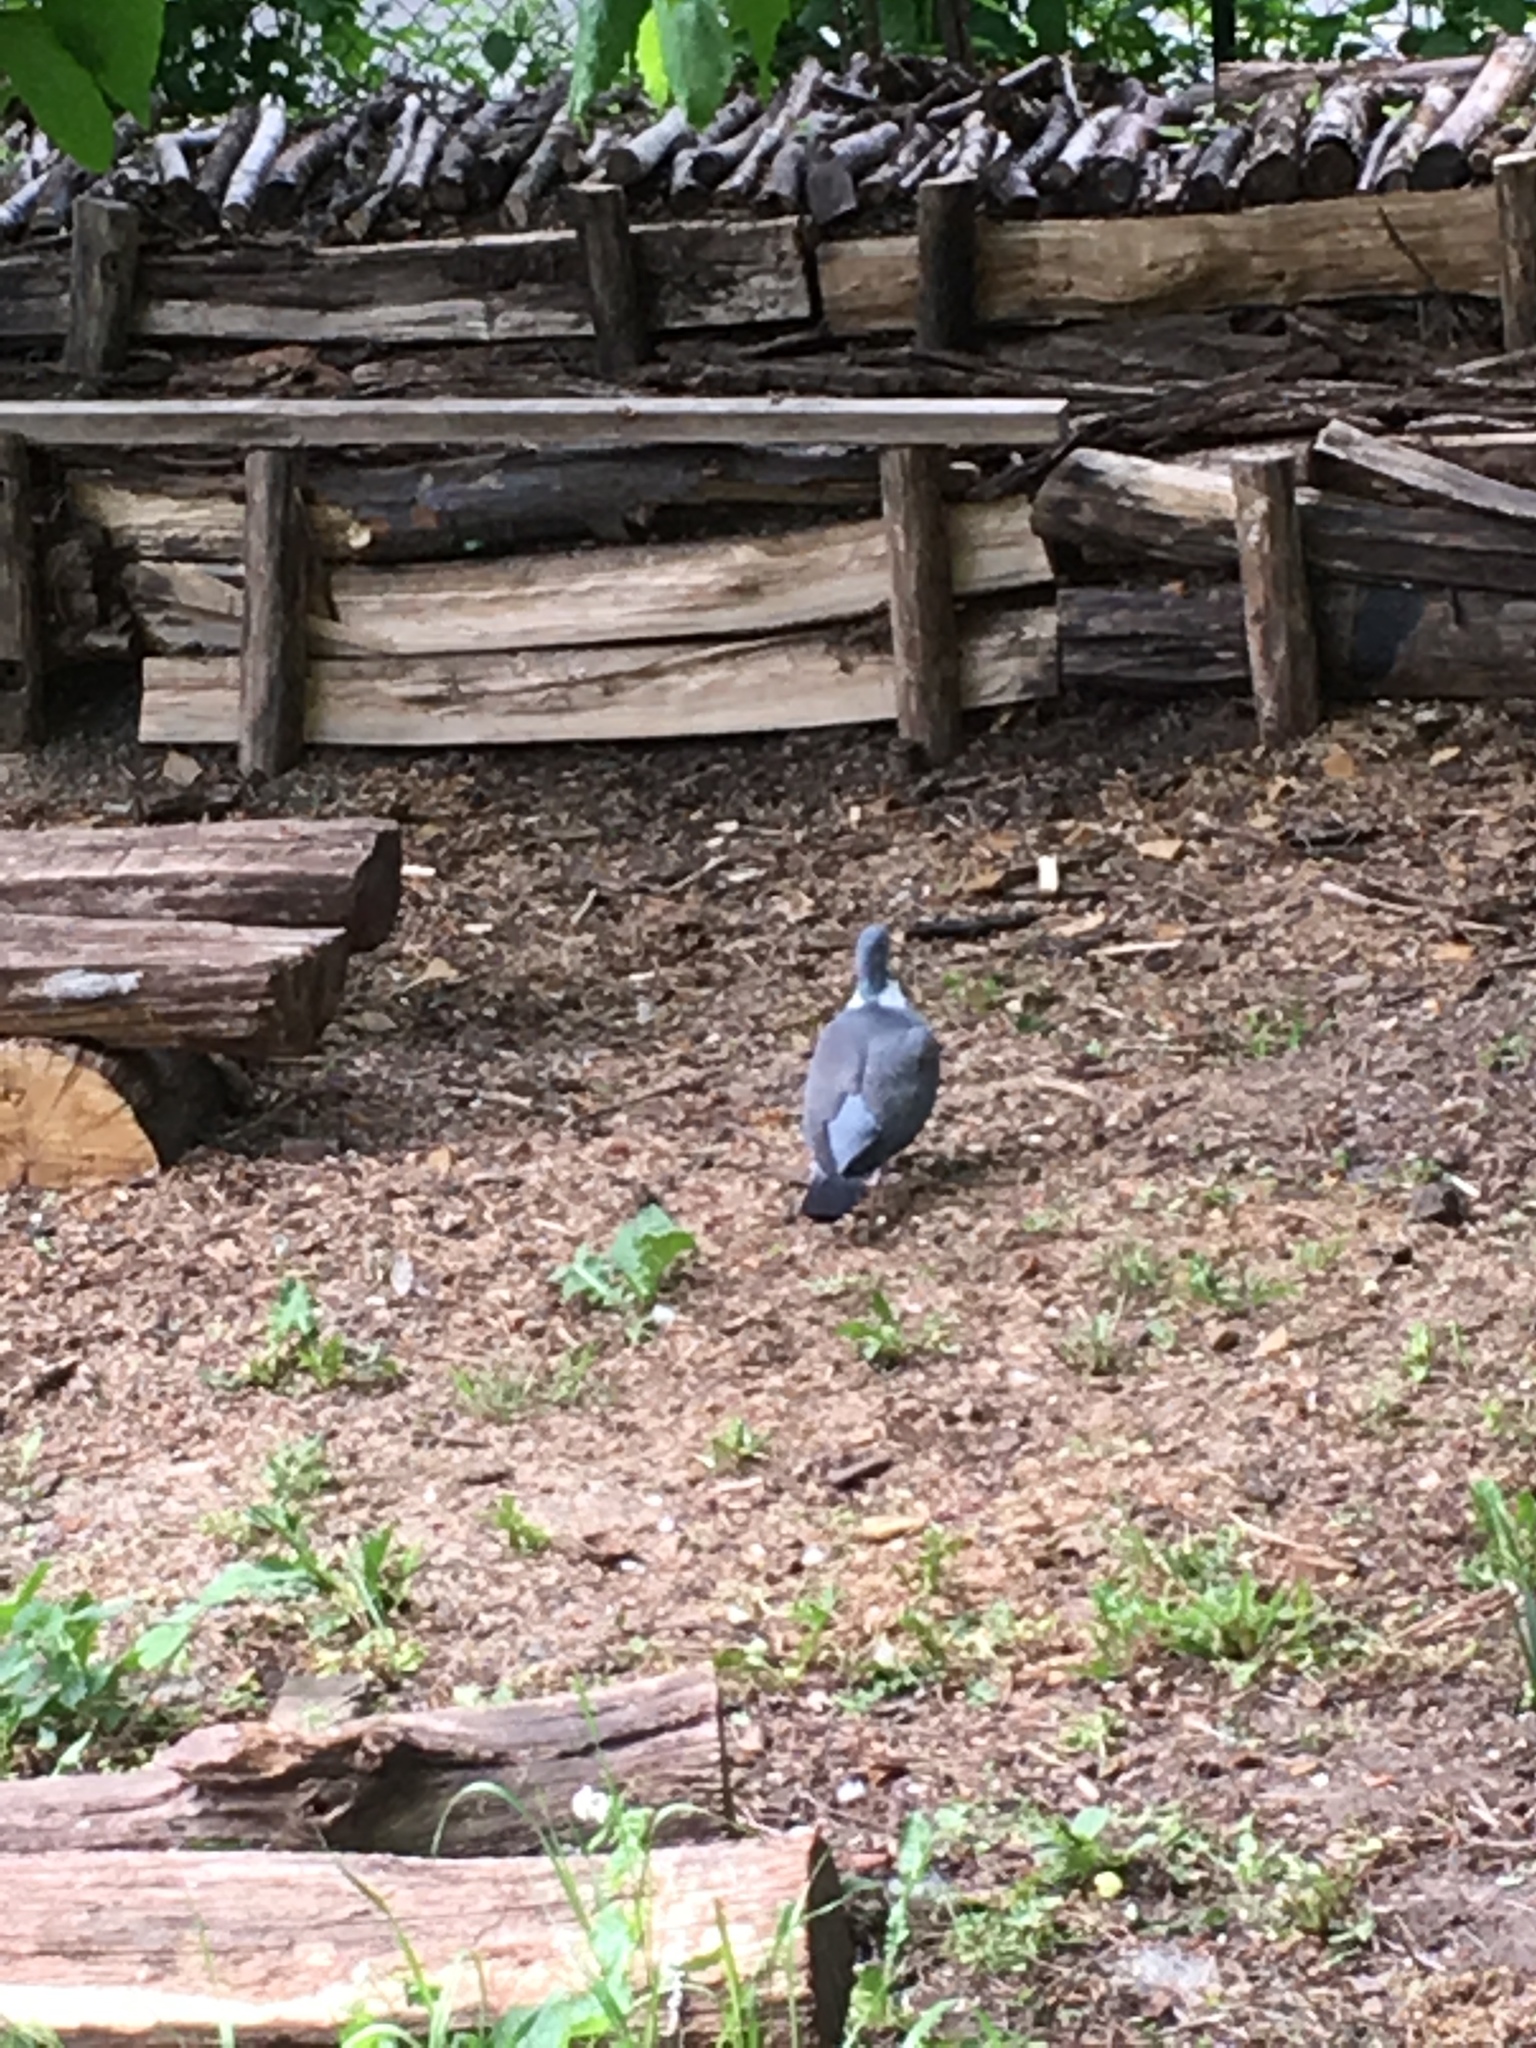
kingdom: Animalia
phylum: Chordata
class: Aves
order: Columbiformes
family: Columbidae
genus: Columba
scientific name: Columba palumbus
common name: Common wood pigeon
